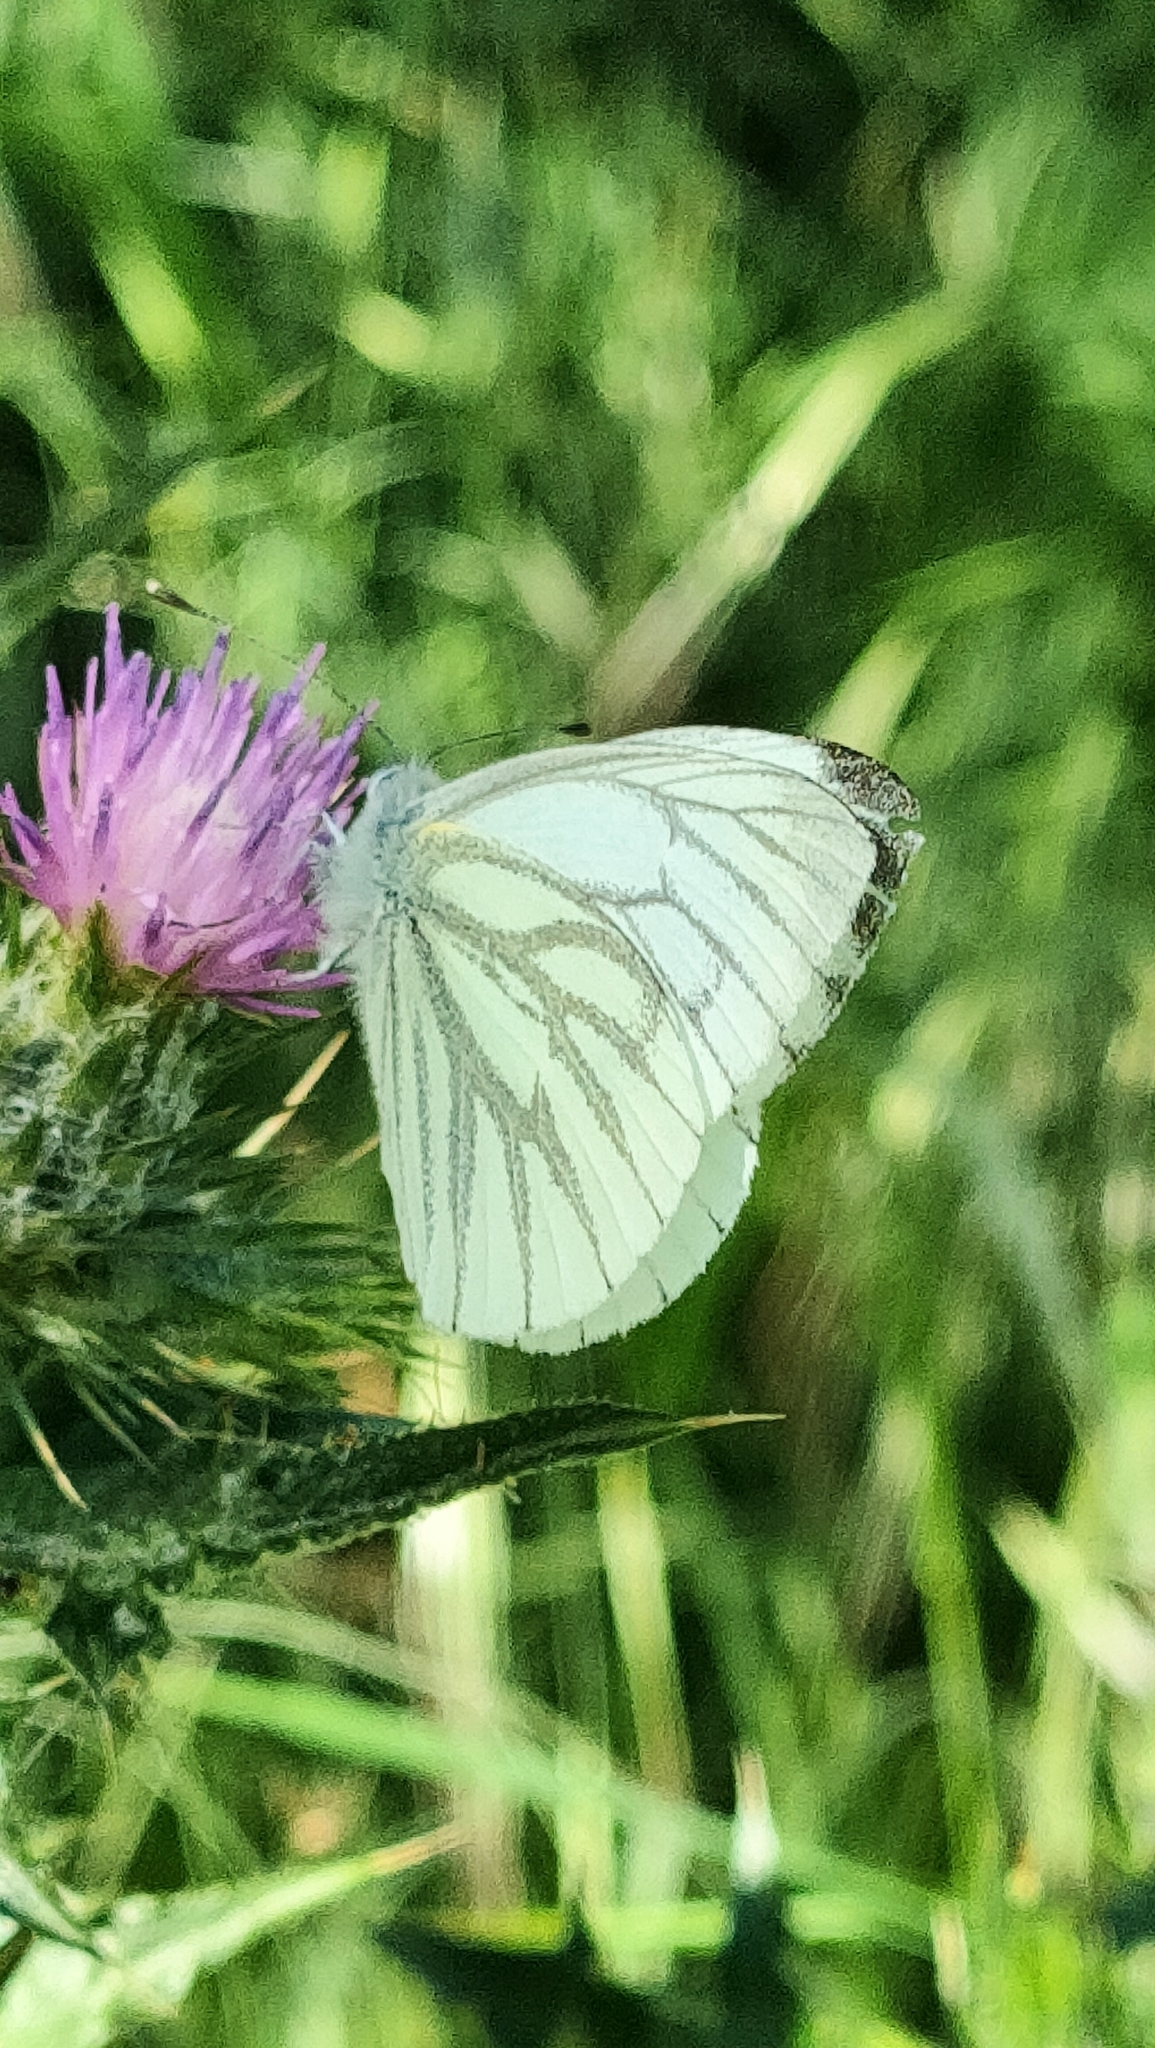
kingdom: Animalia
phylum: Arthropoda
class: Insecta
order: Lepidoptera
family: Pieridae
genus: Pieris
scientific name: Pieris napi
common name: Green-veined white
